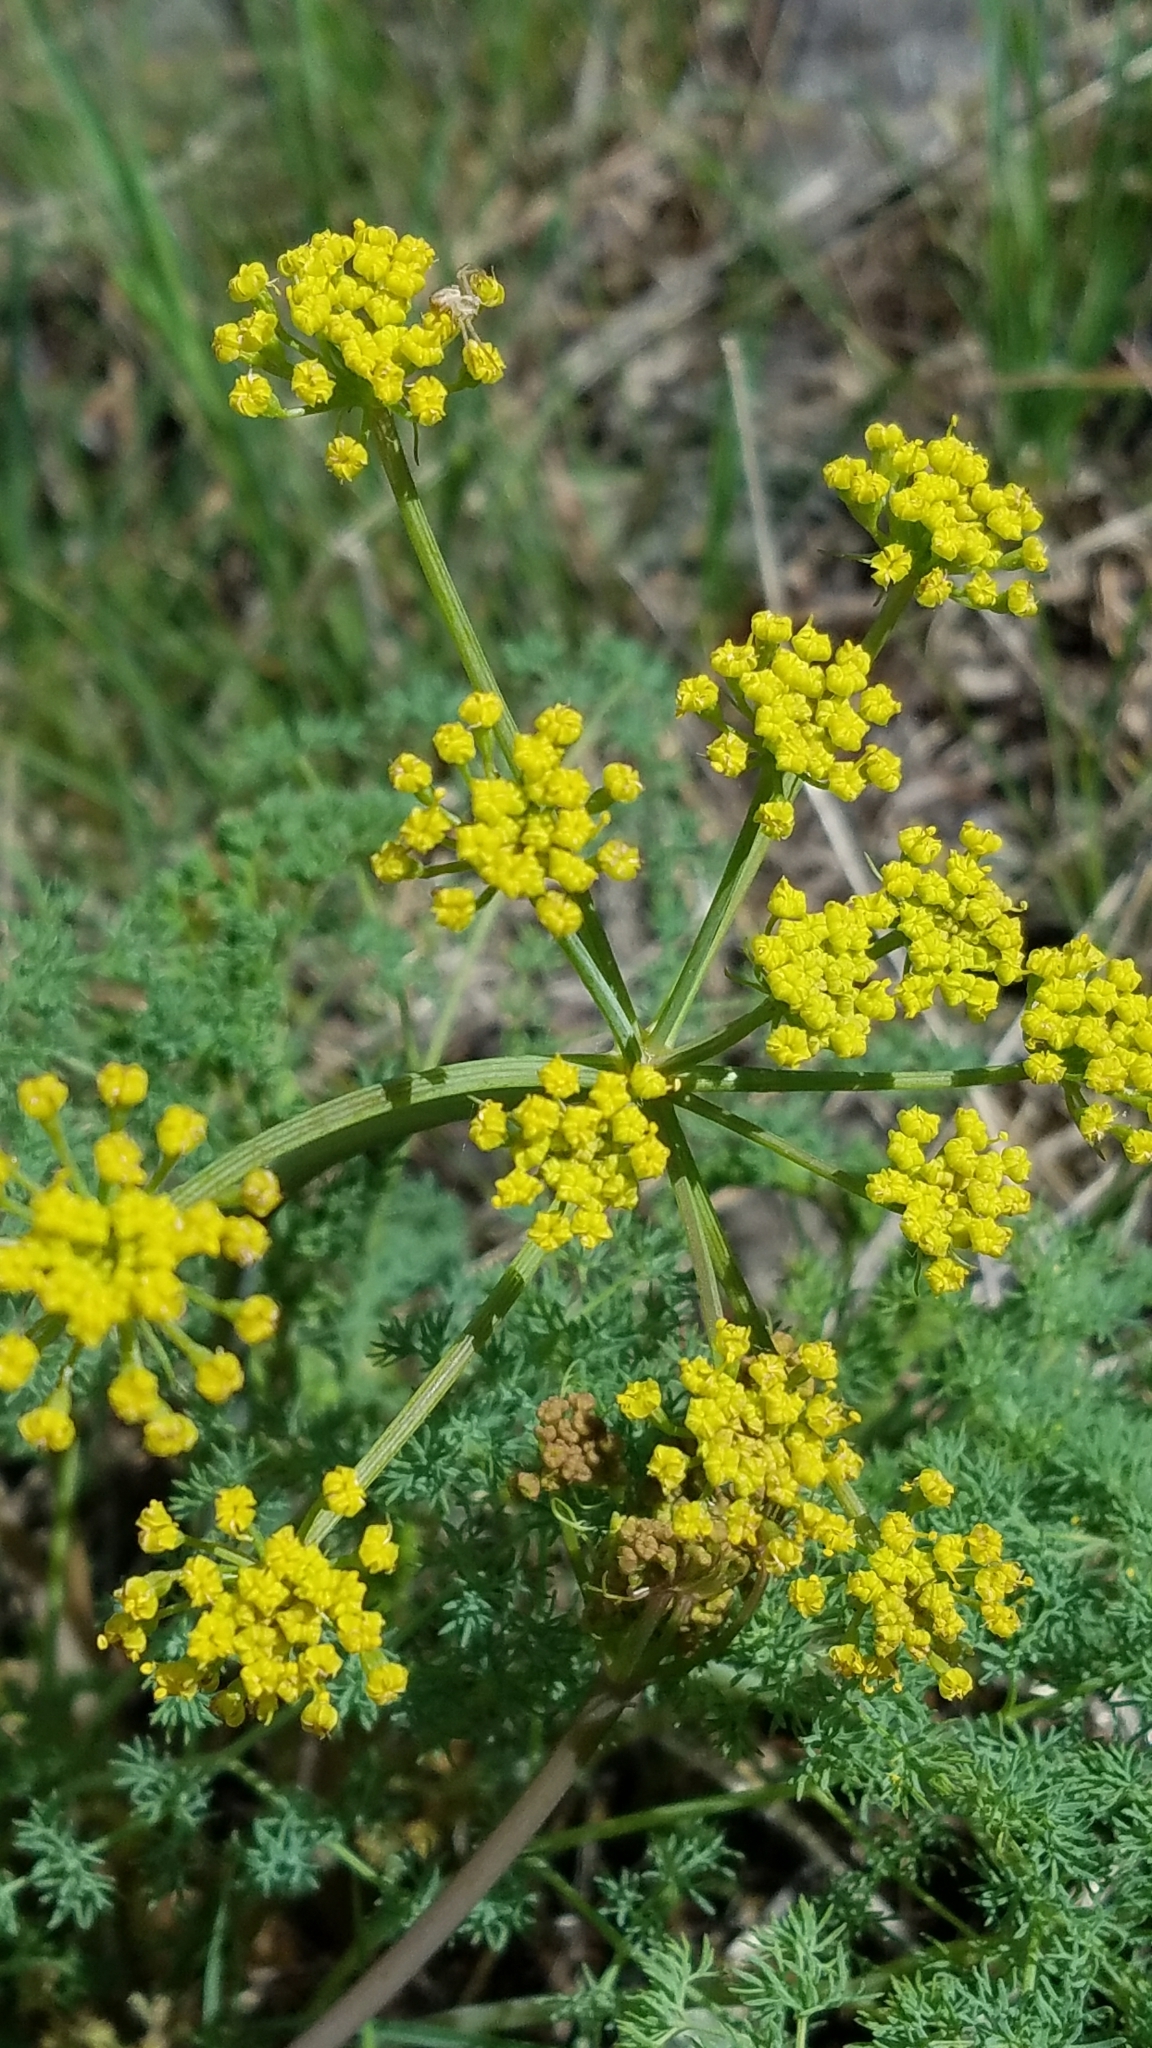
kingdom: Plantae
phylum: Tracheophyta
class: Magnoliopsida
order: Apiales
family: Apiaceae
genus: Lomatium
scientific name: Lomatium papilioniferum
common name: Butterfly lomatium
